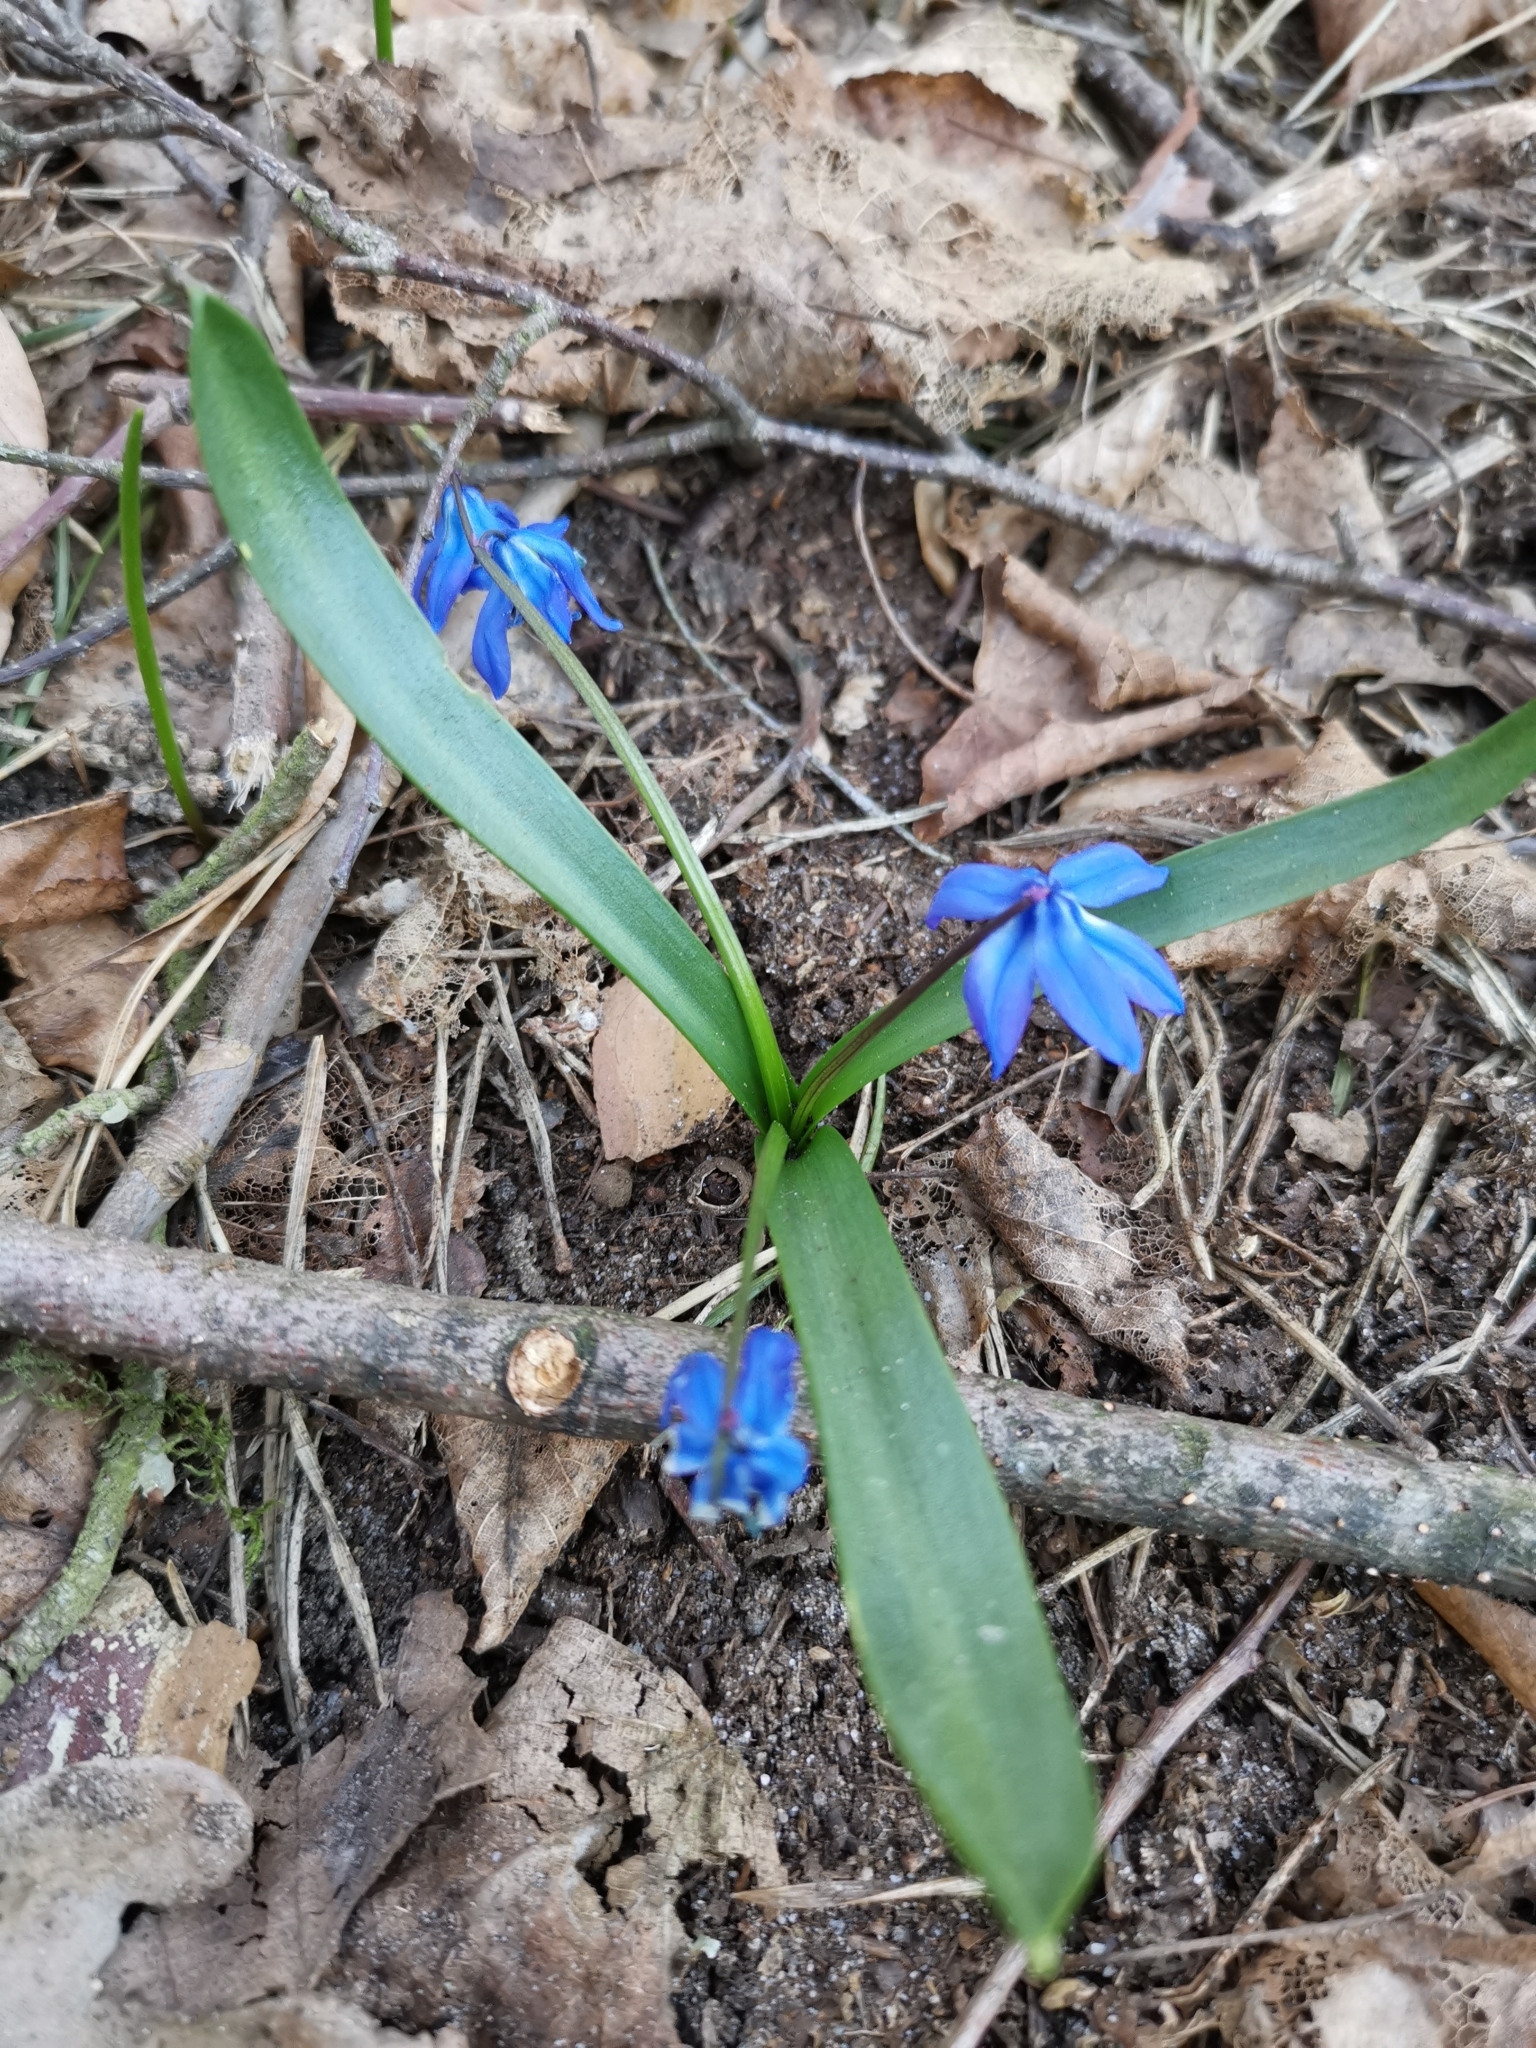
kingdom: Plantae
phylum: Tracheophyta
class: Liliopsida
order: Asparagales
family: Asparagaceae
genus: Scilla
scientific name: Scilla siberica
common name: Siberian squill
